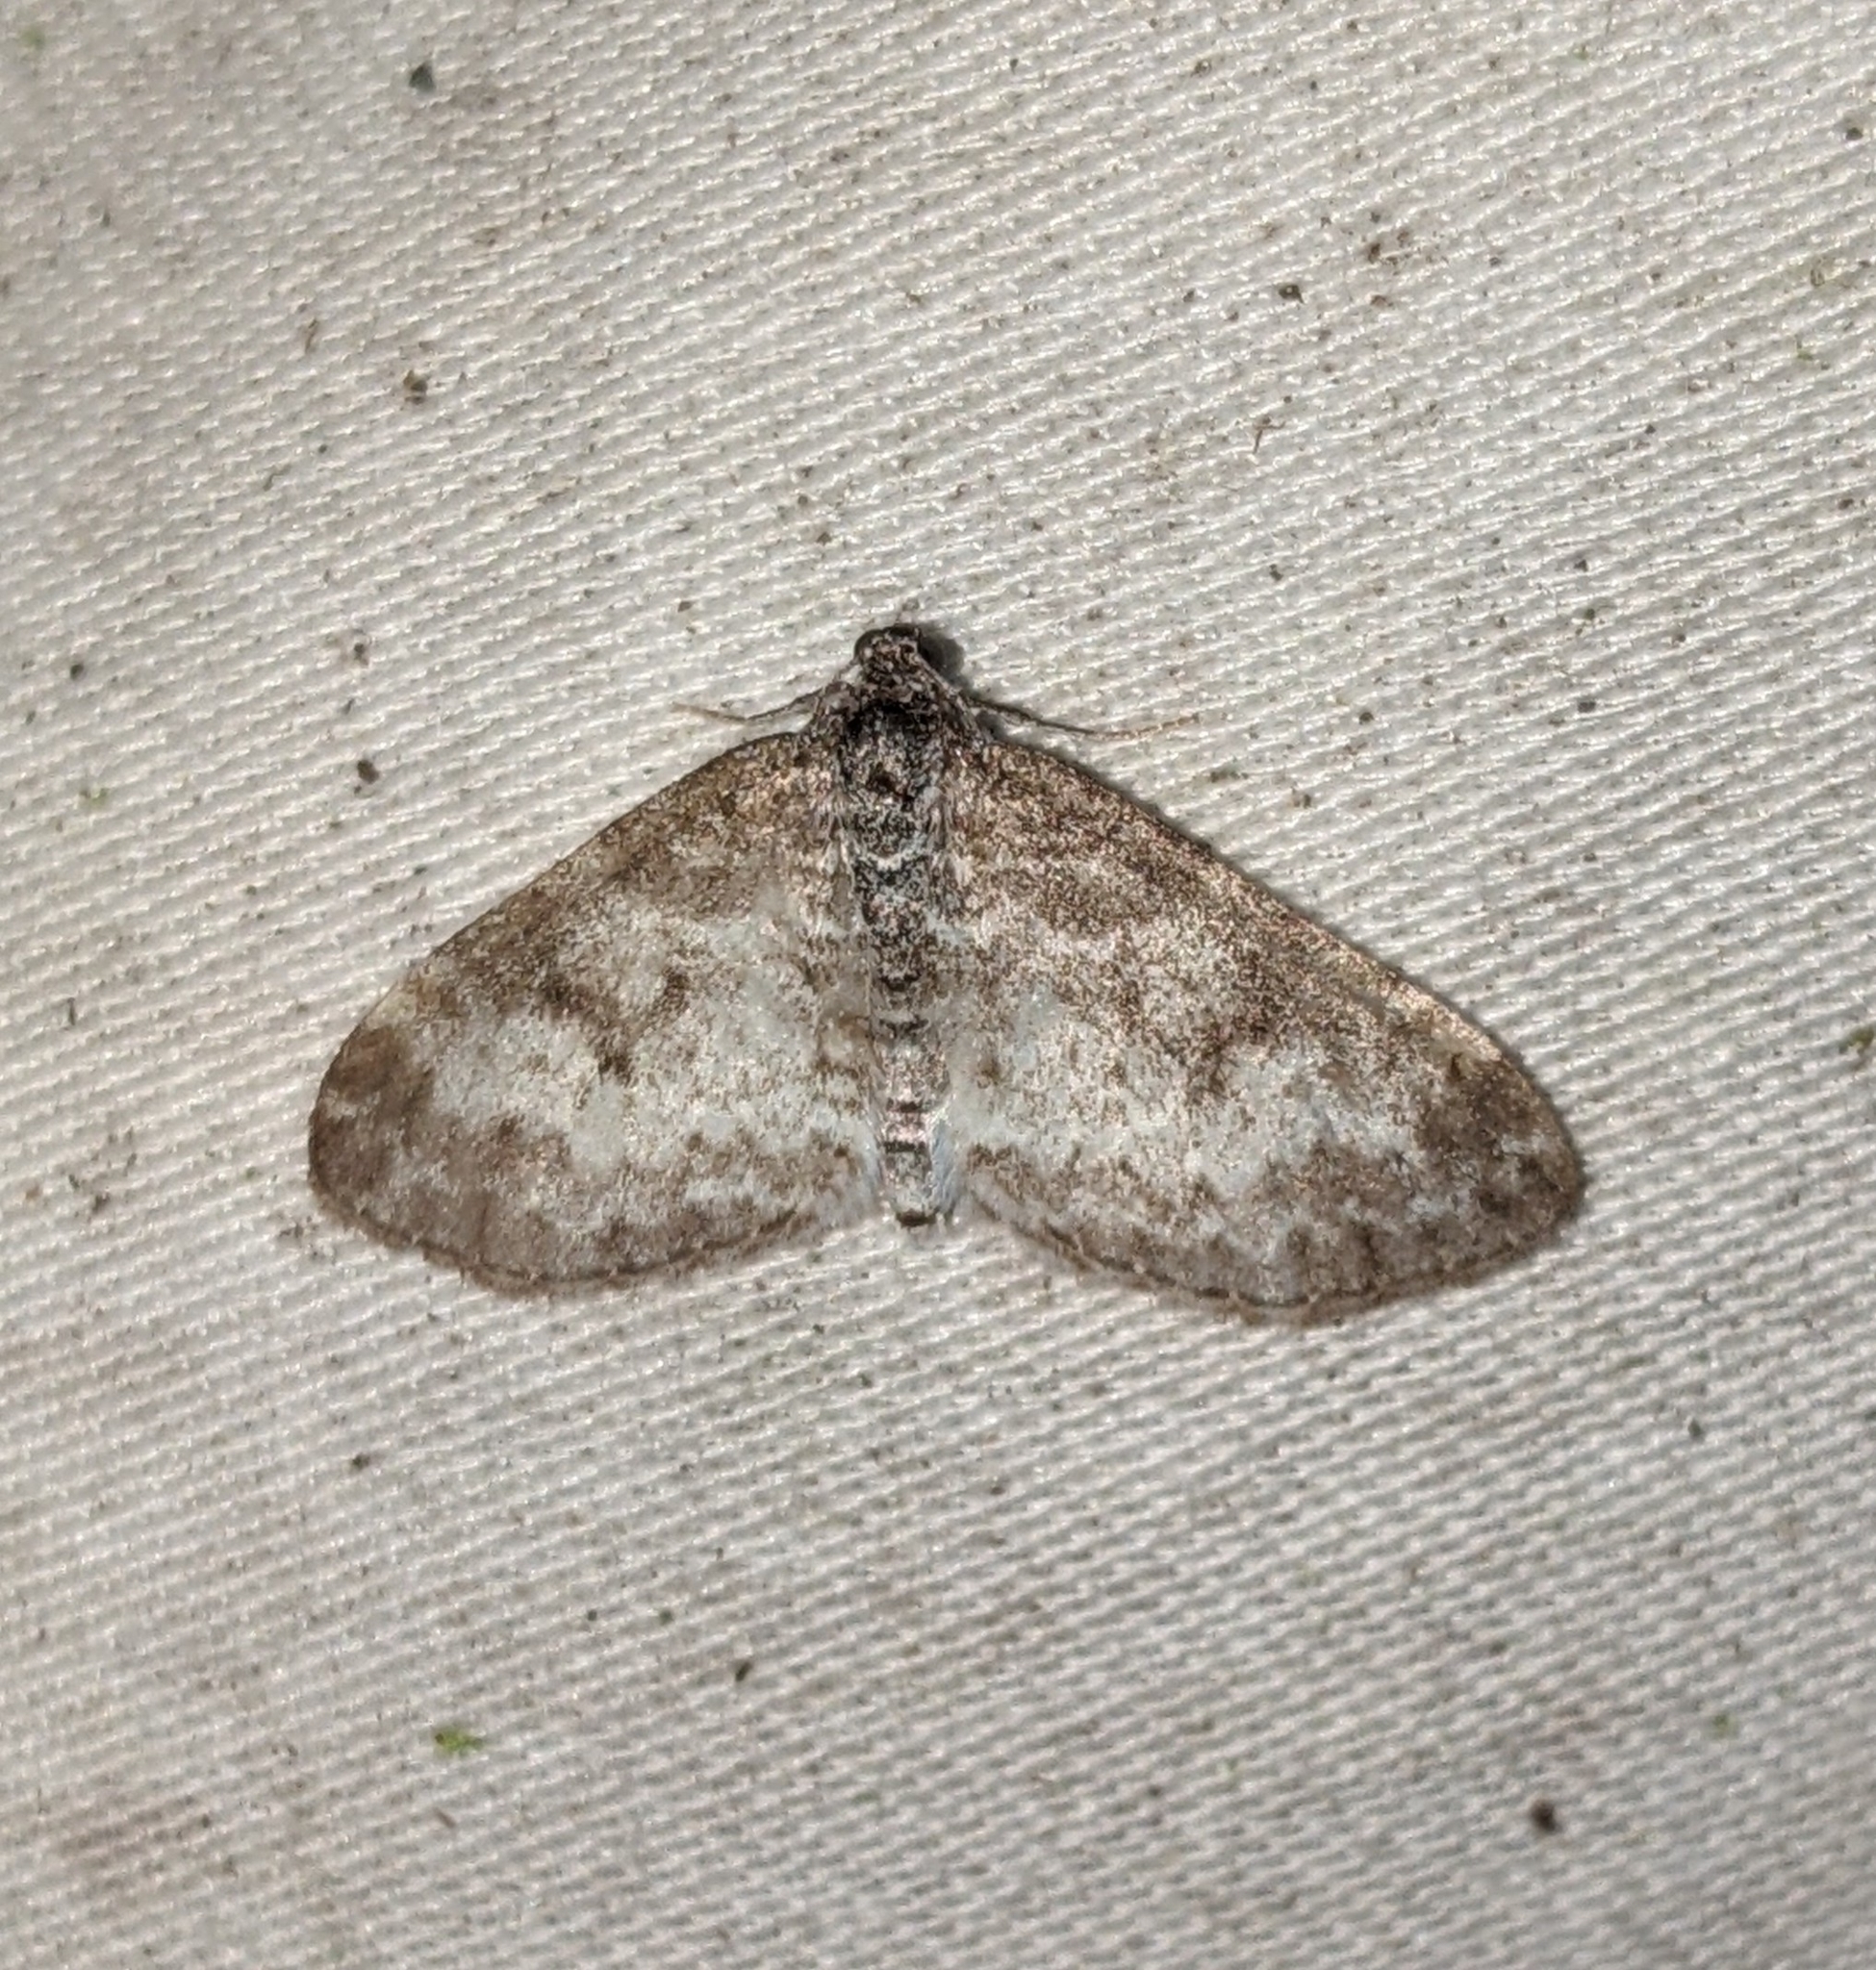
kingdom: Animalia
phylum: Arthropoda
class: Insecta
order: Lepidoptera
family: Geometridae
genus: Lobophora
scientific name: Lobophora nivigerata
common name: Powdered bigwing
